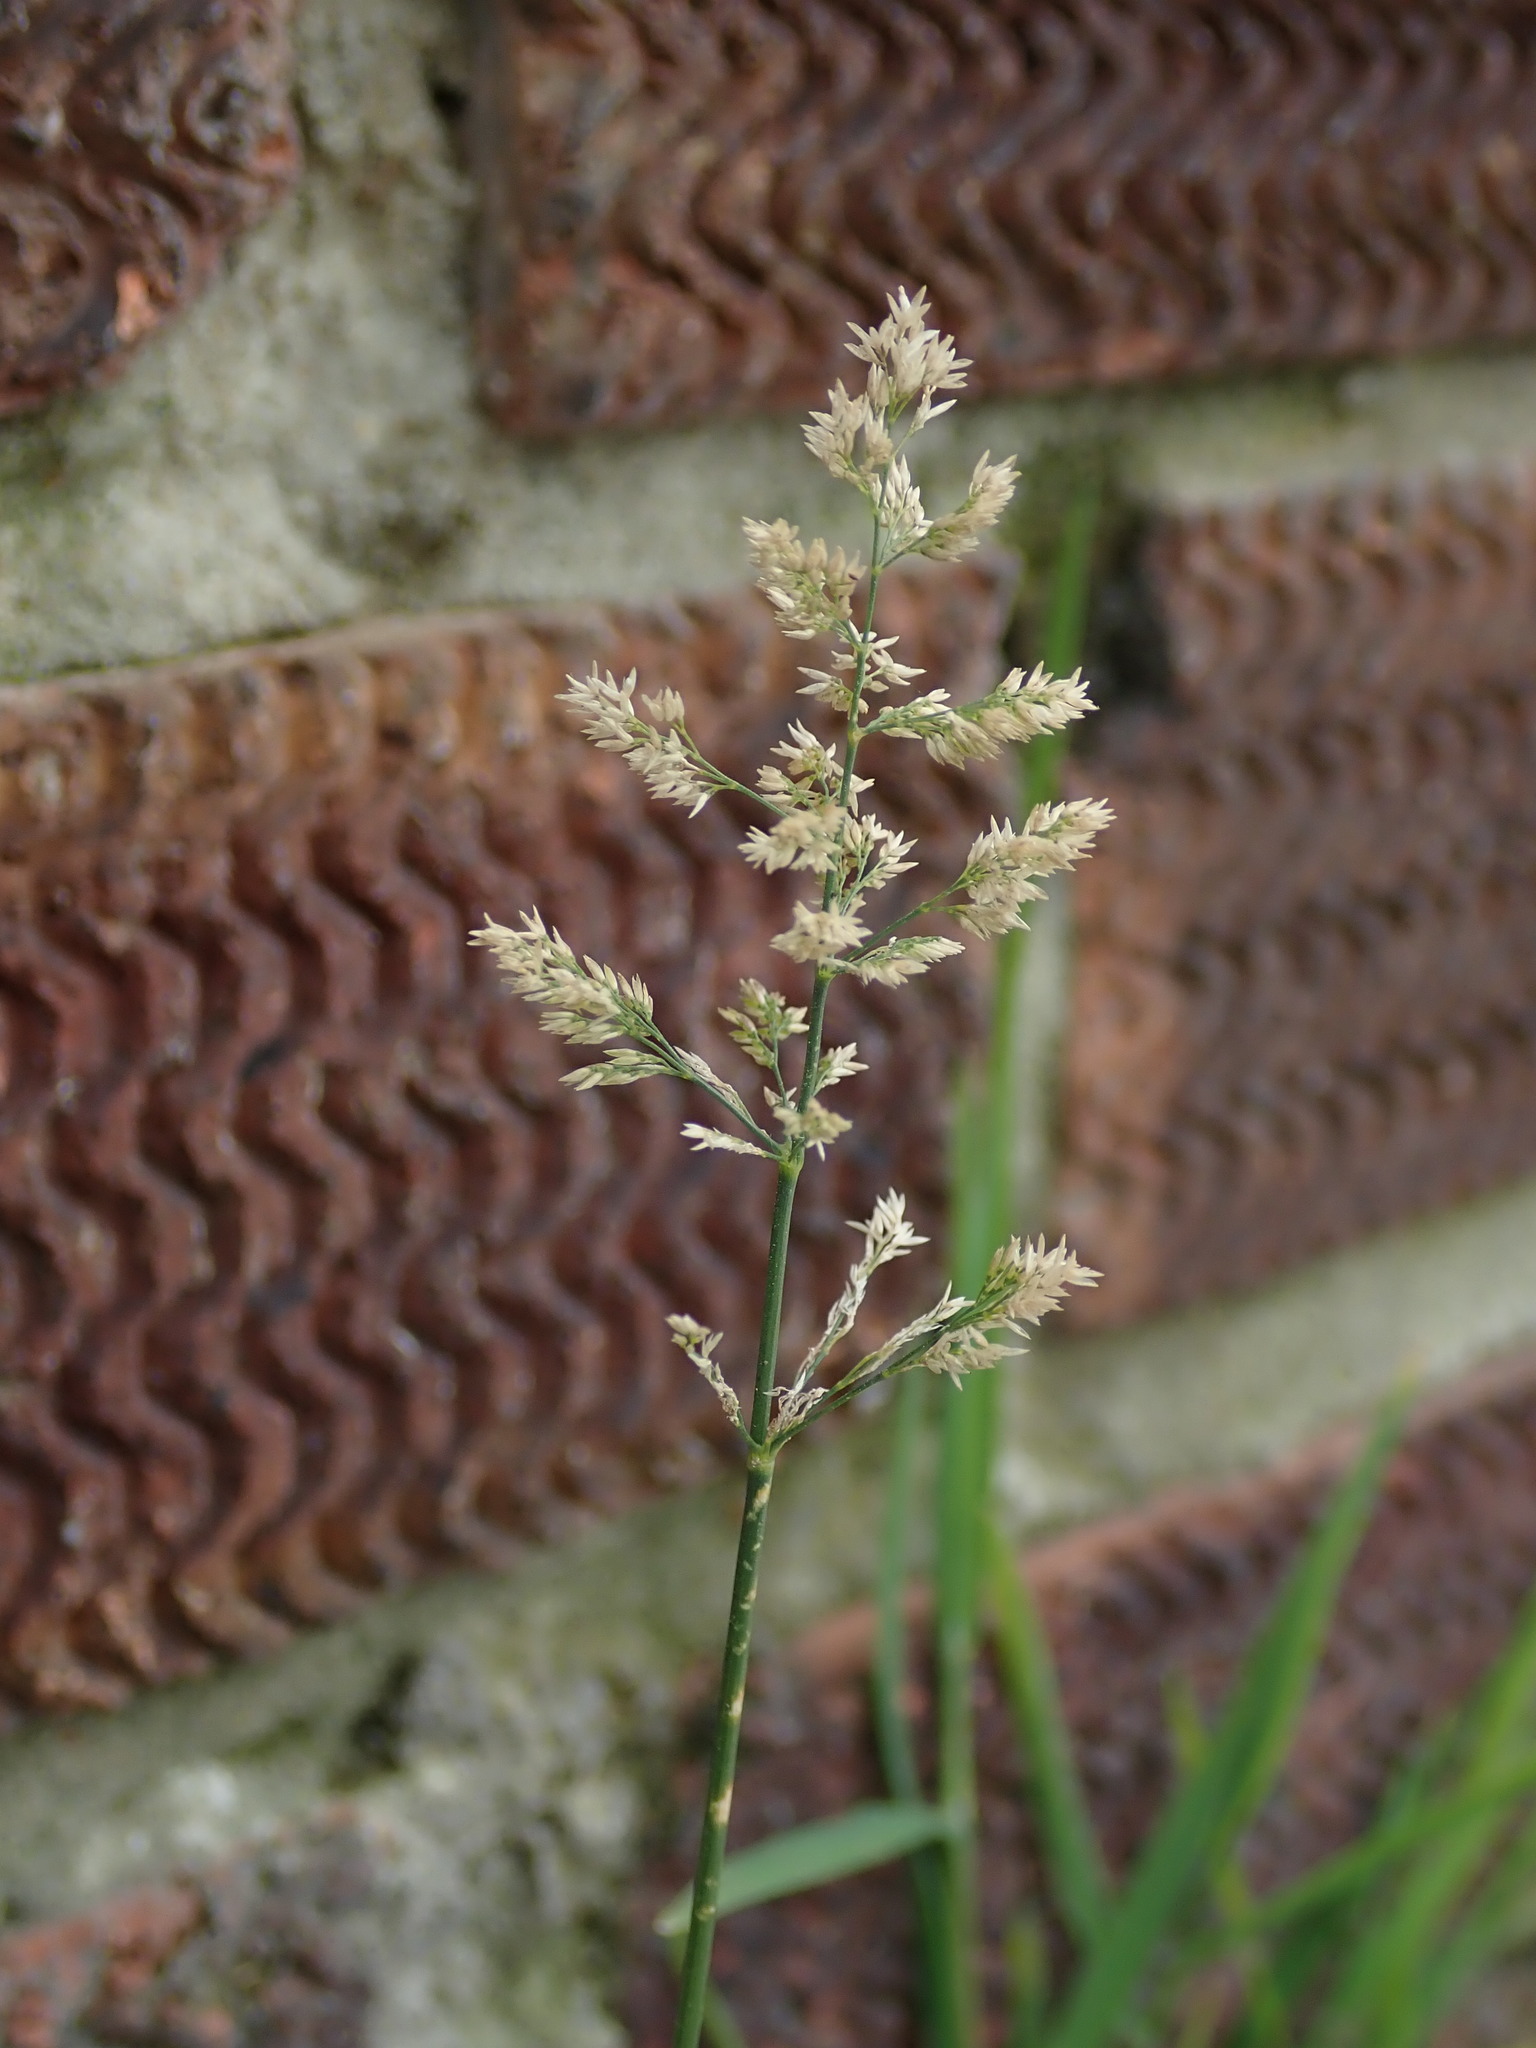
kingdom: Plantae
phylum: Tracheophyta
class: Liliopsida
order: Poales
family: Poaceae
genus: Polypogon
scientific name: Polypogon viridis
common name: Water bent
